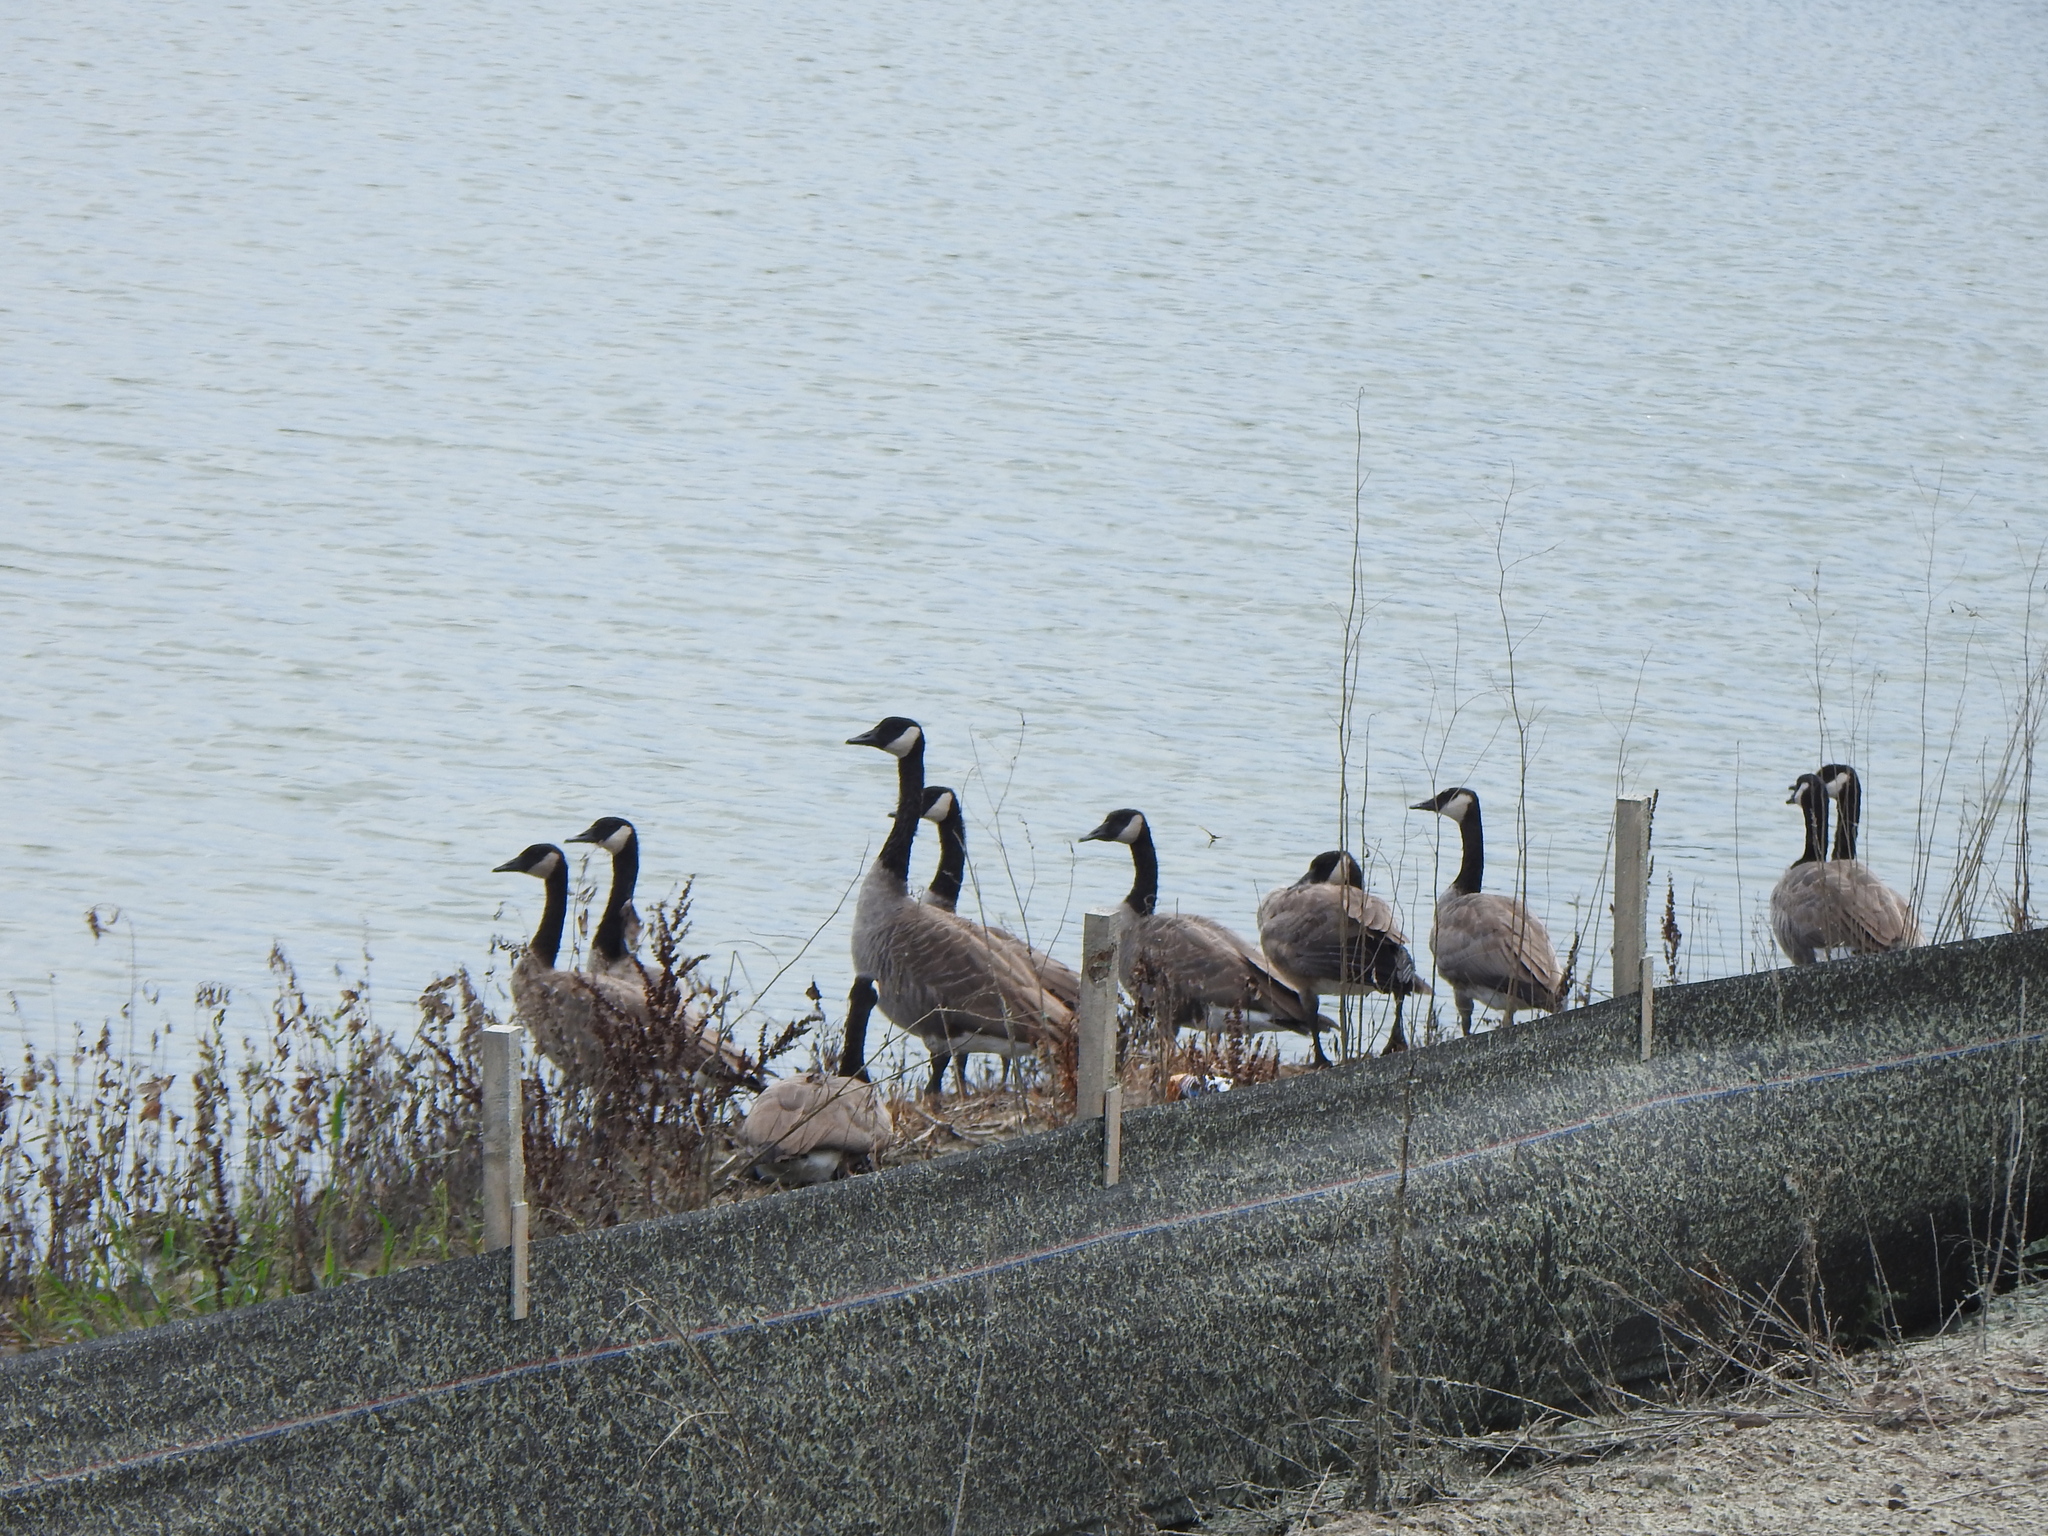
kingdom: Animalia
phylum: Chordata
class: Aves
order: Anseriformes
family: Anatidae
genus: Branta
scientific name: Branta canadensis
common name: Canada goose
